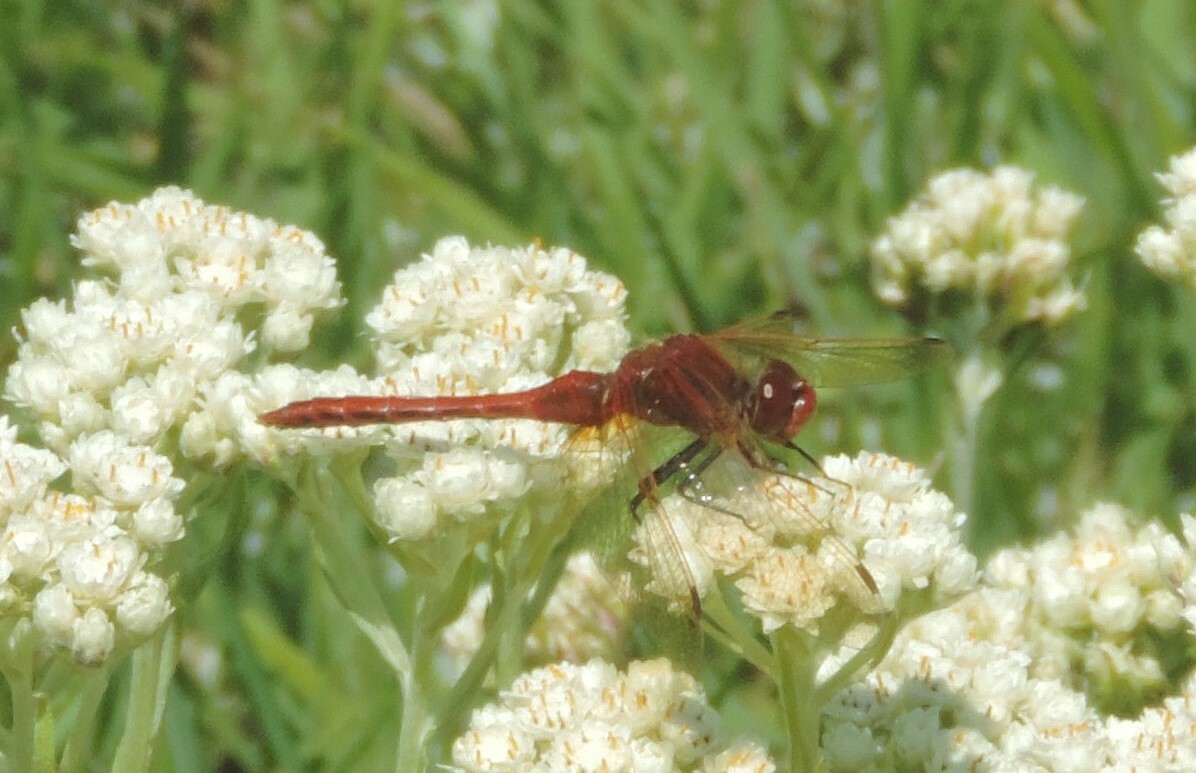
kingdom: Animalia
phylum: Arthropoda
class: Insecta
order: Odonata
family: Libellulidae
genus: Sympetrum
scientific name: Sympetrum madidum
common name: Red-veined meadowhawk
